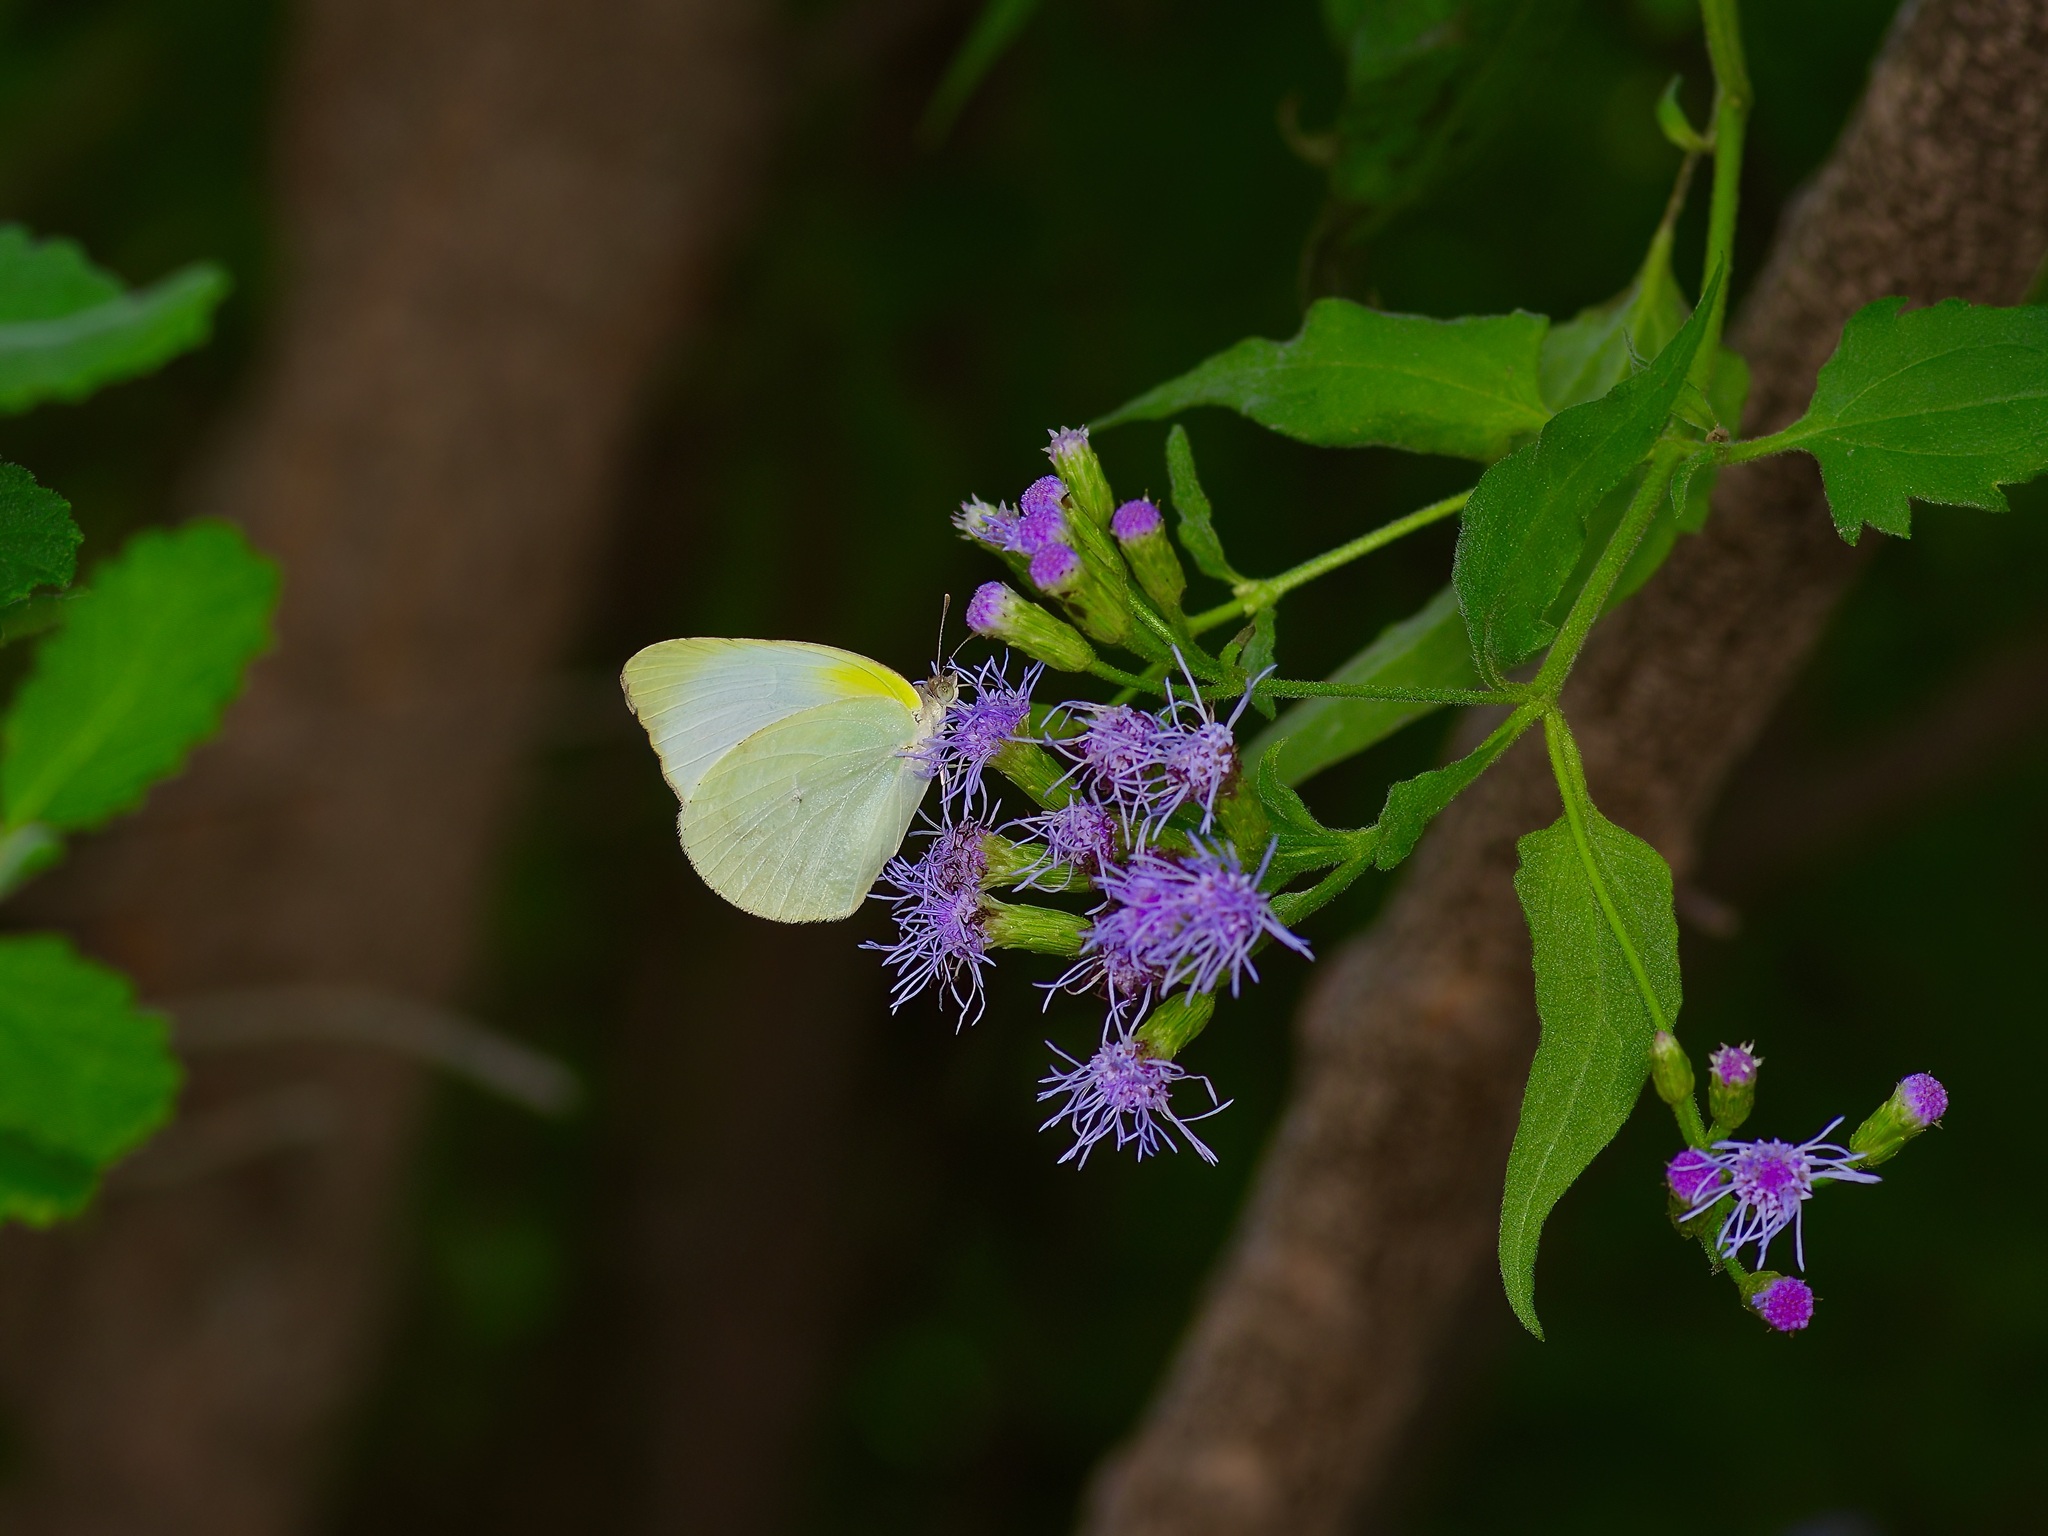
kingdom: Animalia
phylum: Arthropoda
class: Insecta
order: Lepidoptera
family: Pieridae
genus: Kricogonia
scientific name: Kricogonia lyside
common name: Guayacan sulphur,
